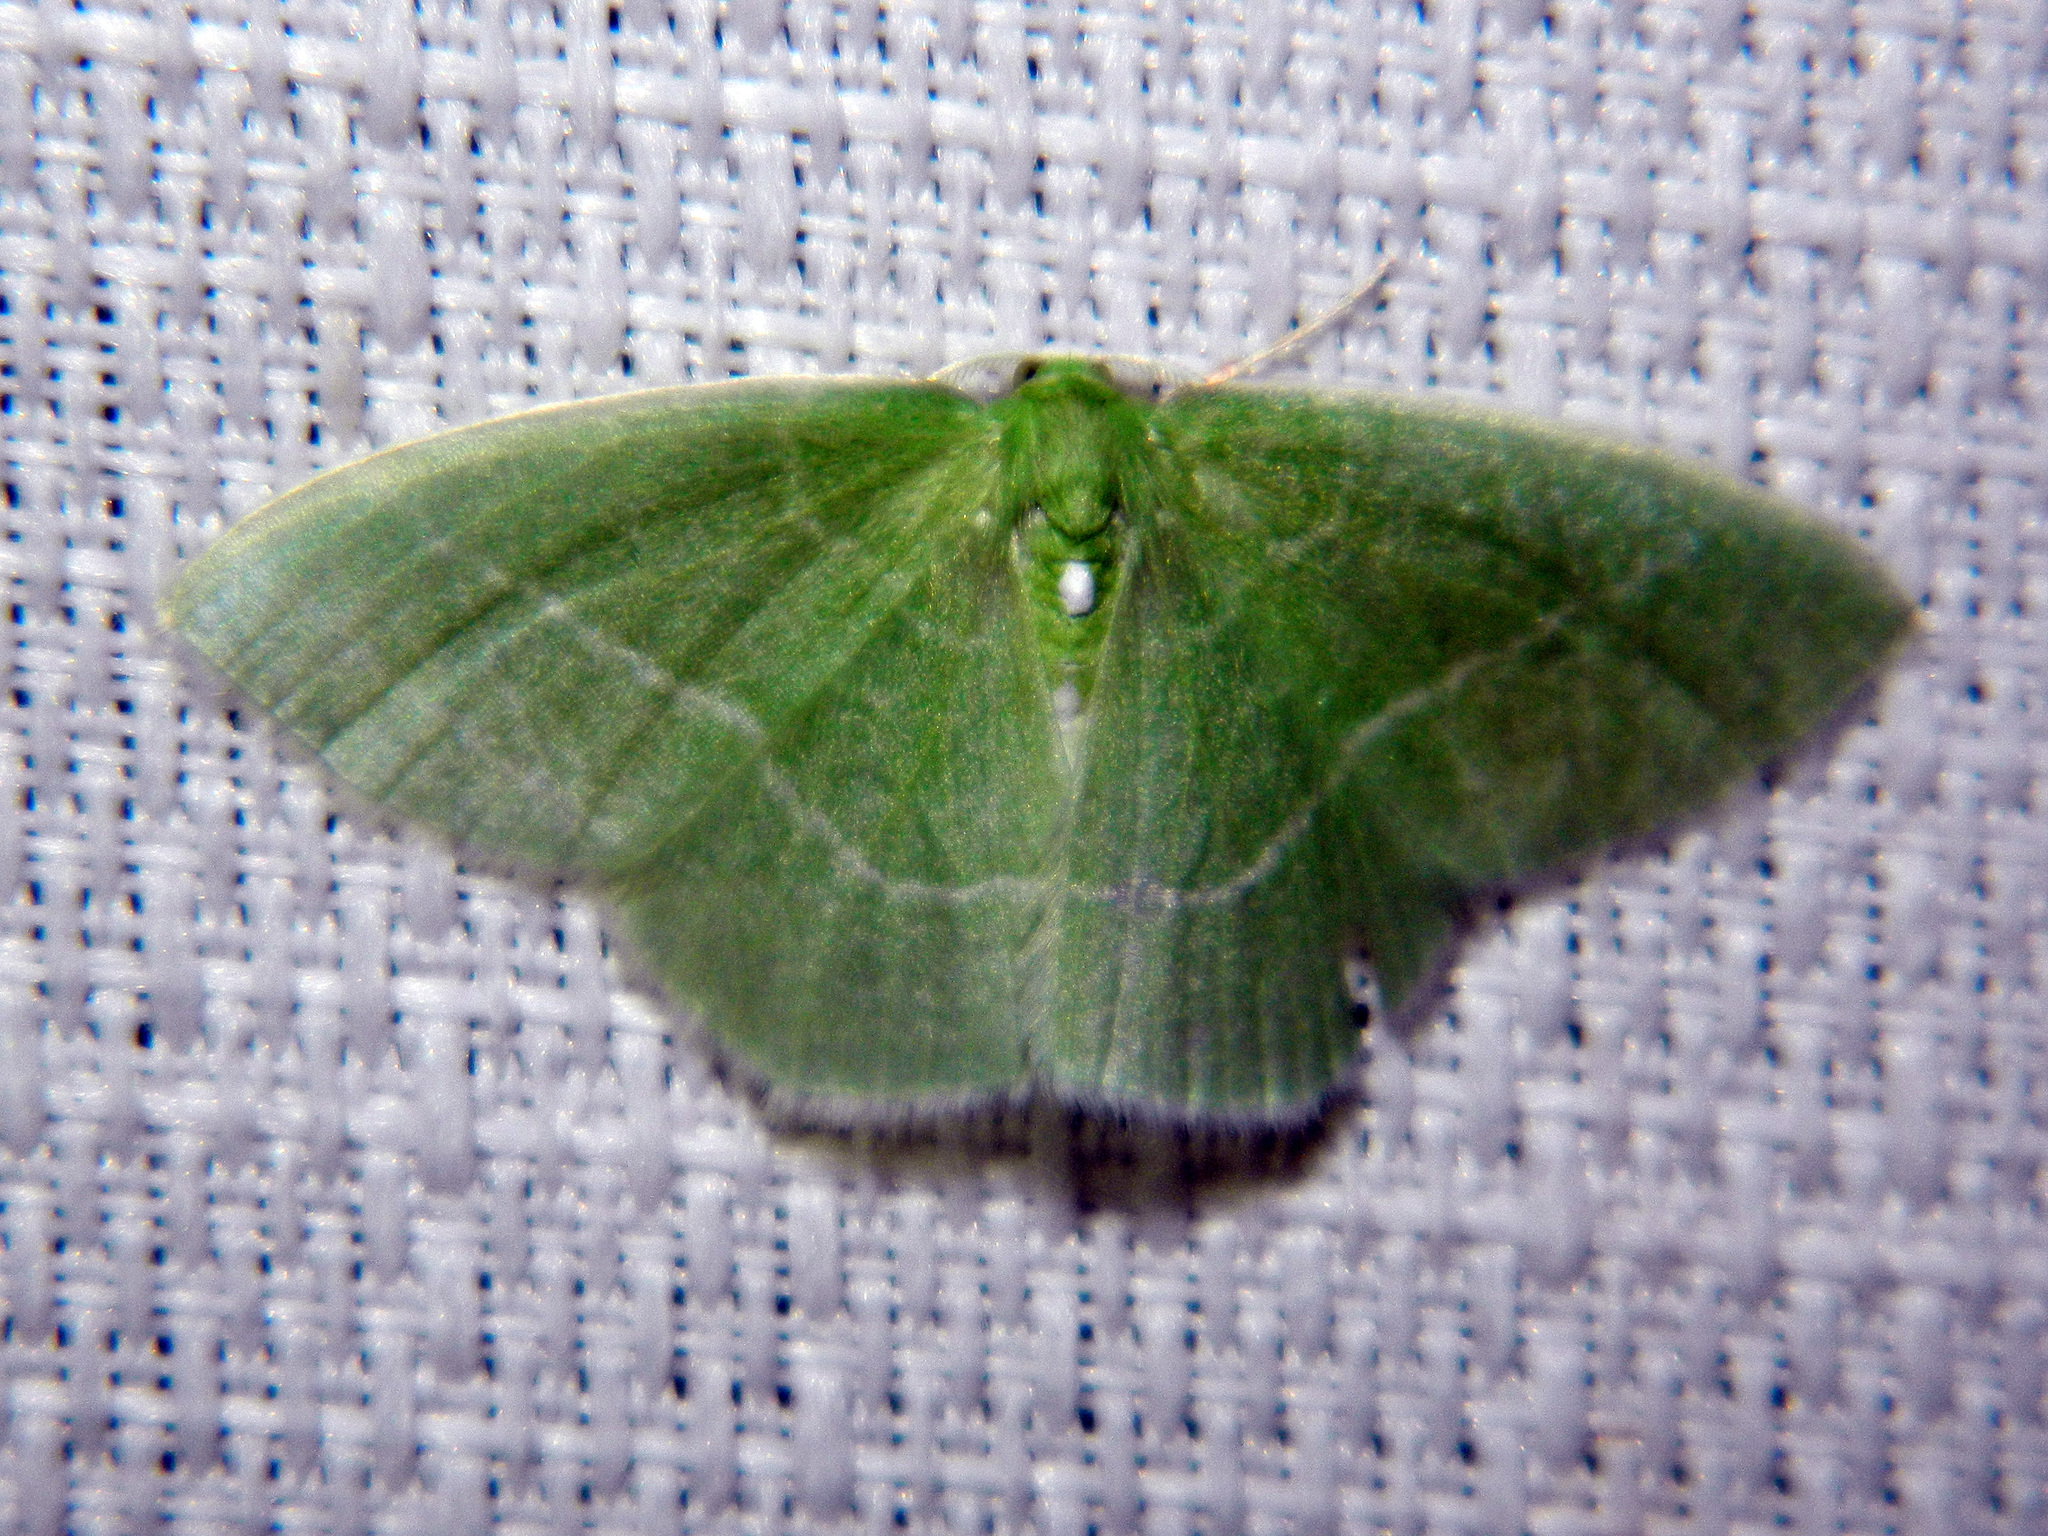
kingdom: Animalia
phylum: Arthropoda
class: Insecta
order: Lepidoptera
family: Geometridae
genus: Nemoria
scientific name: Nemoria mimosaria
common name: White-fringed emerald
